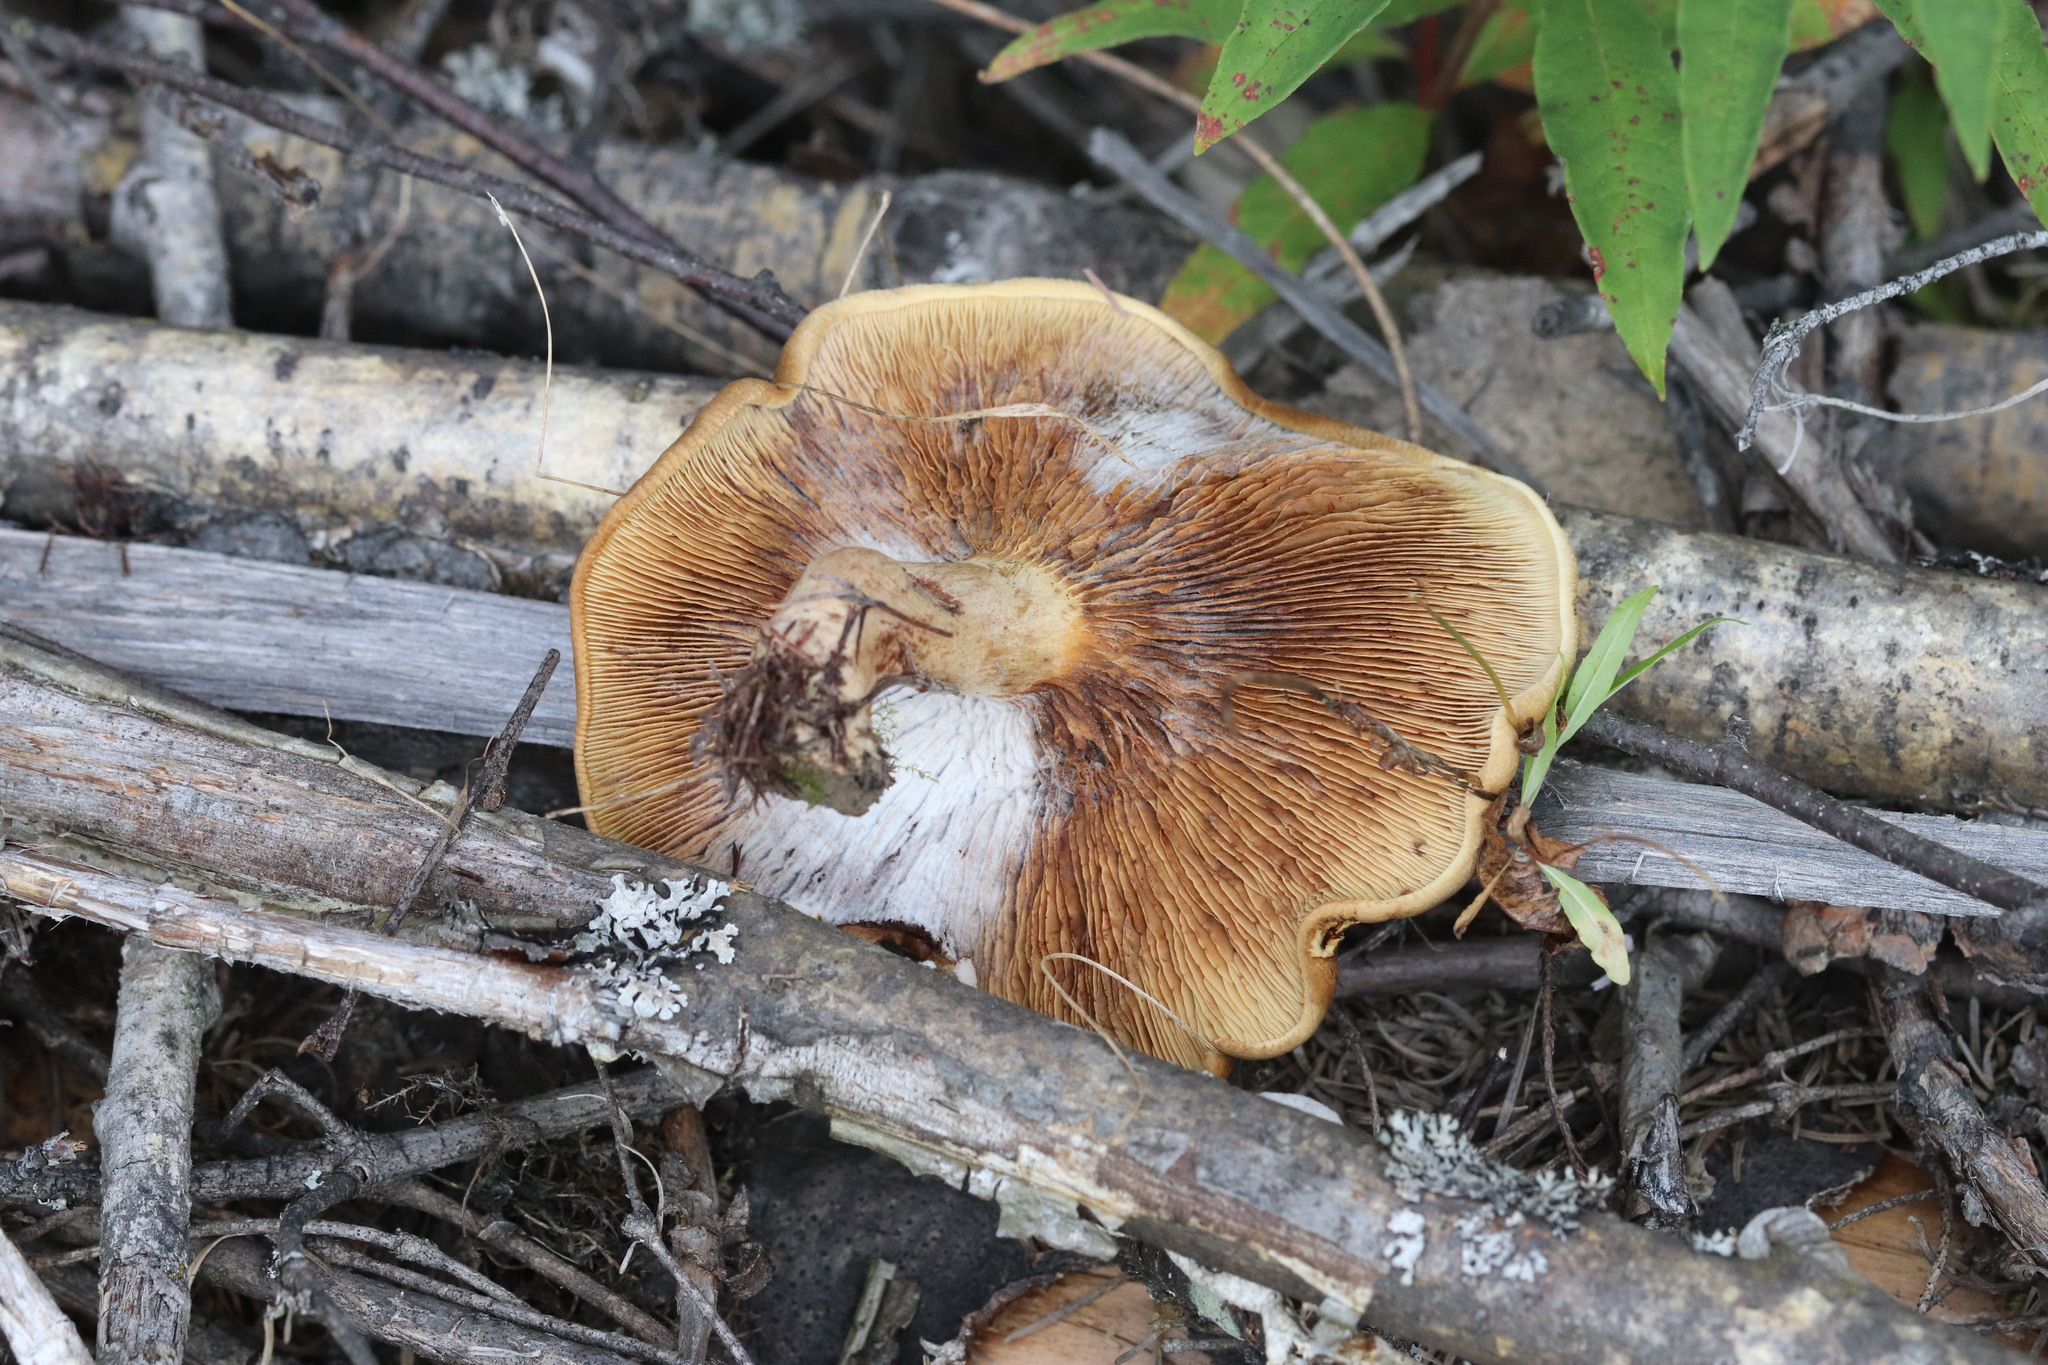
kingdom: Fungi
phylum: Basidiomycota
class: Agaricomycetes
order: Boletales
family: Paxillaceae
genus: Paxillus
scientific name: Paxillus involutus
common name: Brown roll rim
